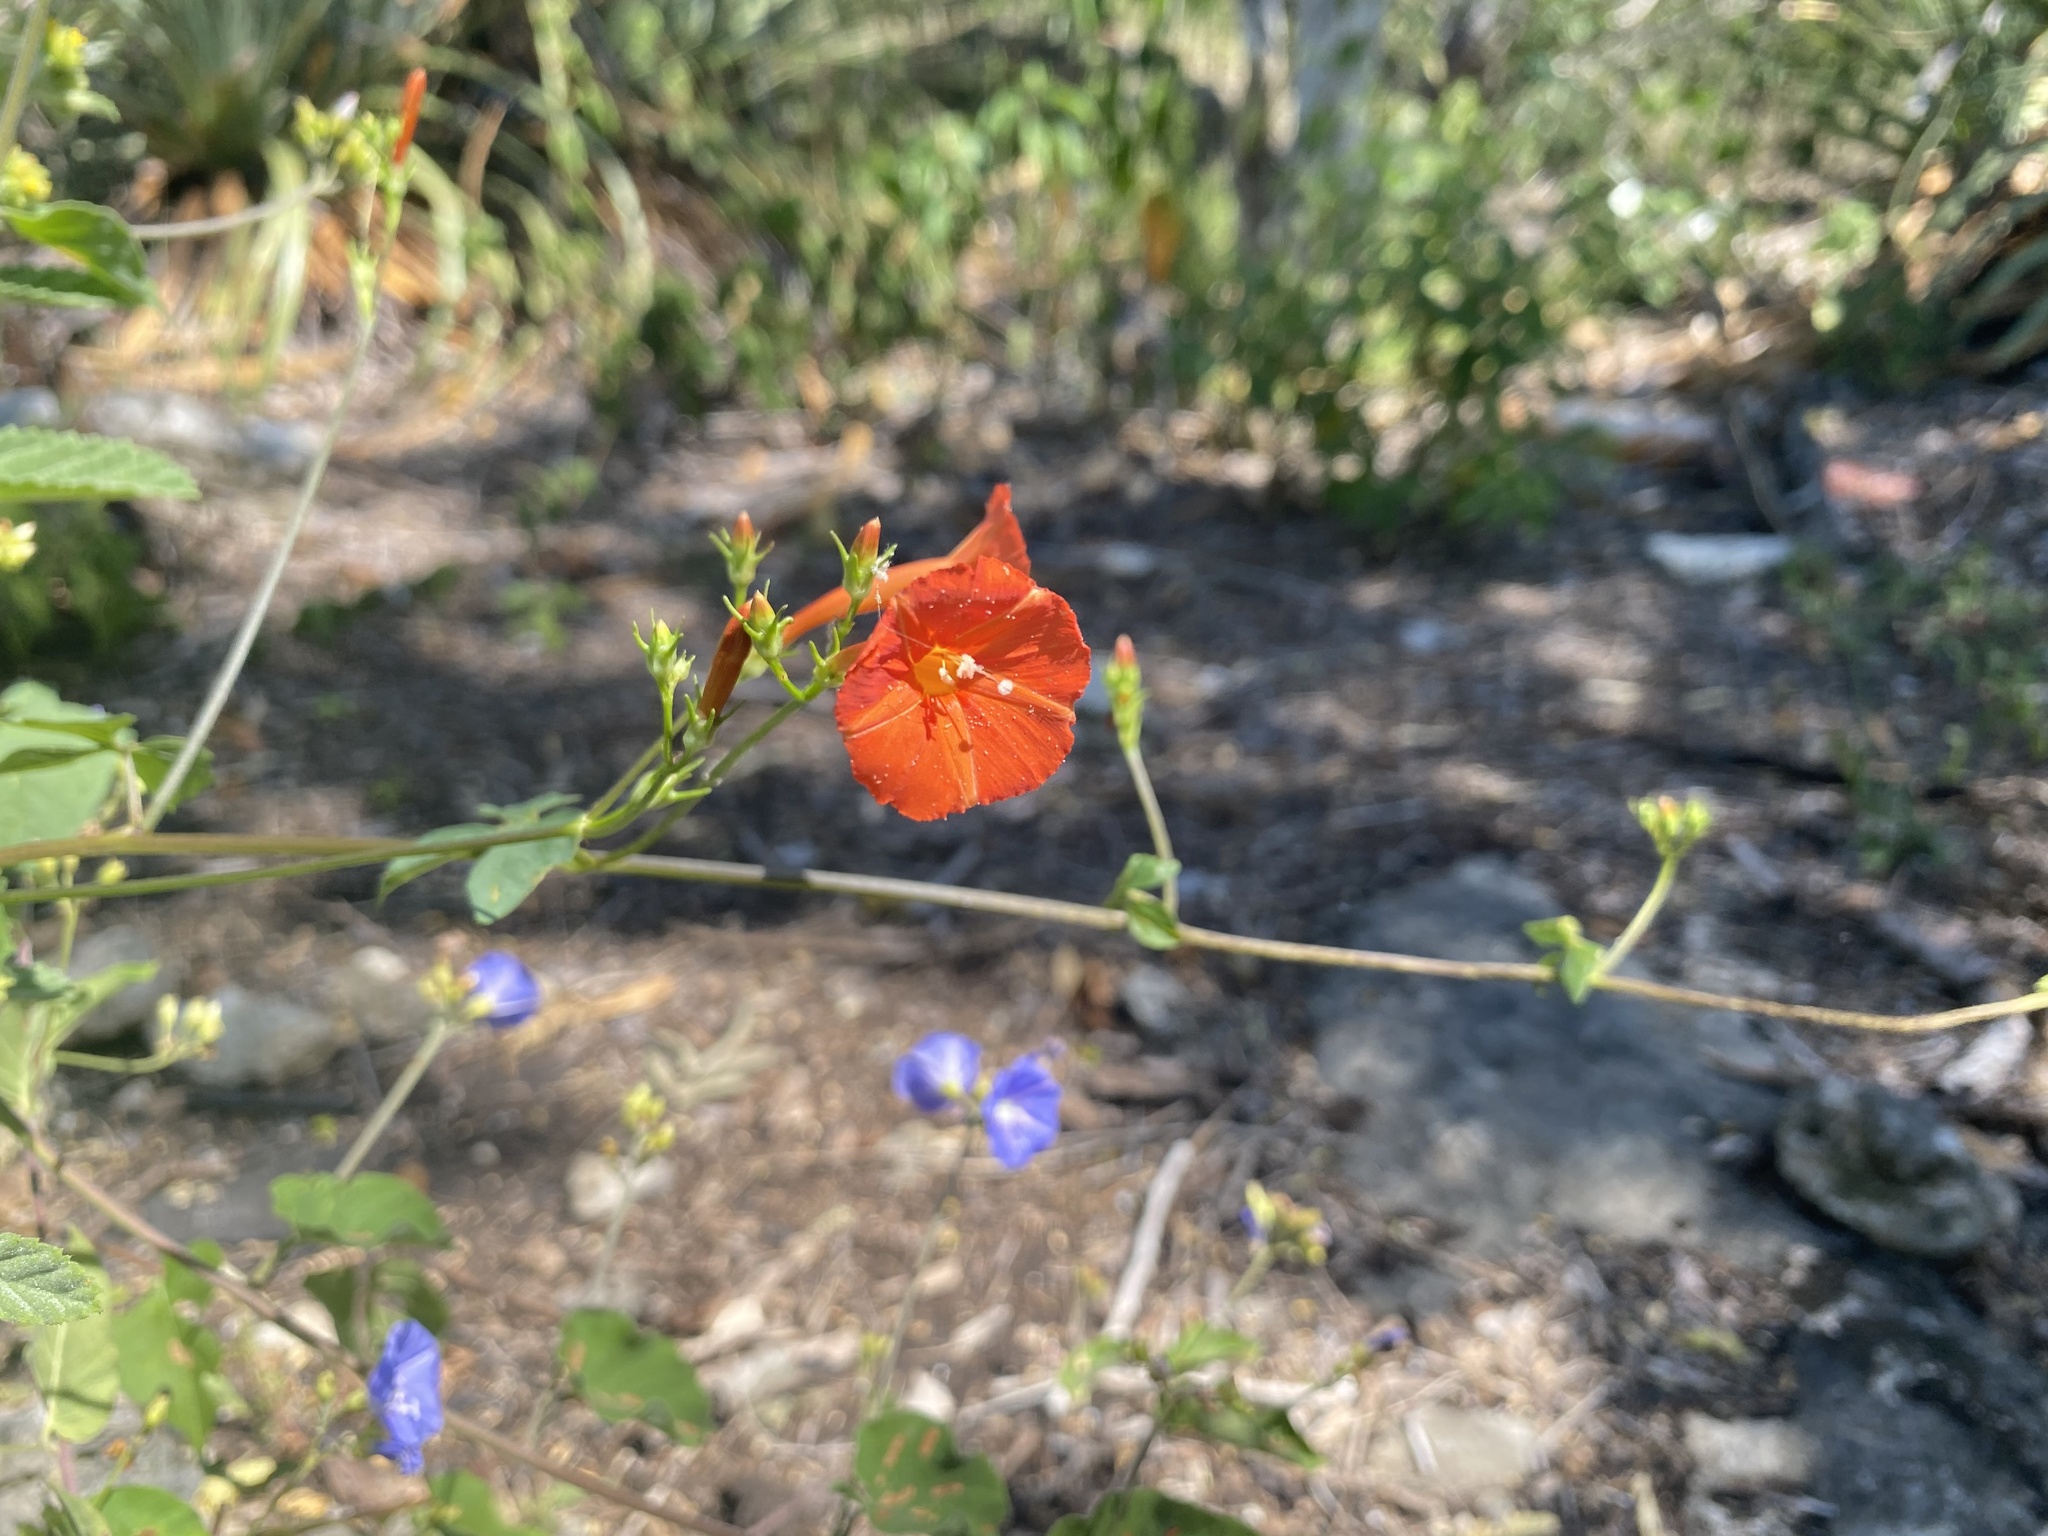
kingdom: Plantae
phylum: Tracheophyta
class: Magnoliopsida
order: Solanales
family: Convolvulaceae
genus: Ipomoea
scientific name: Ipomoea hederifolia
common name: Ivy-leaf morning-glory
